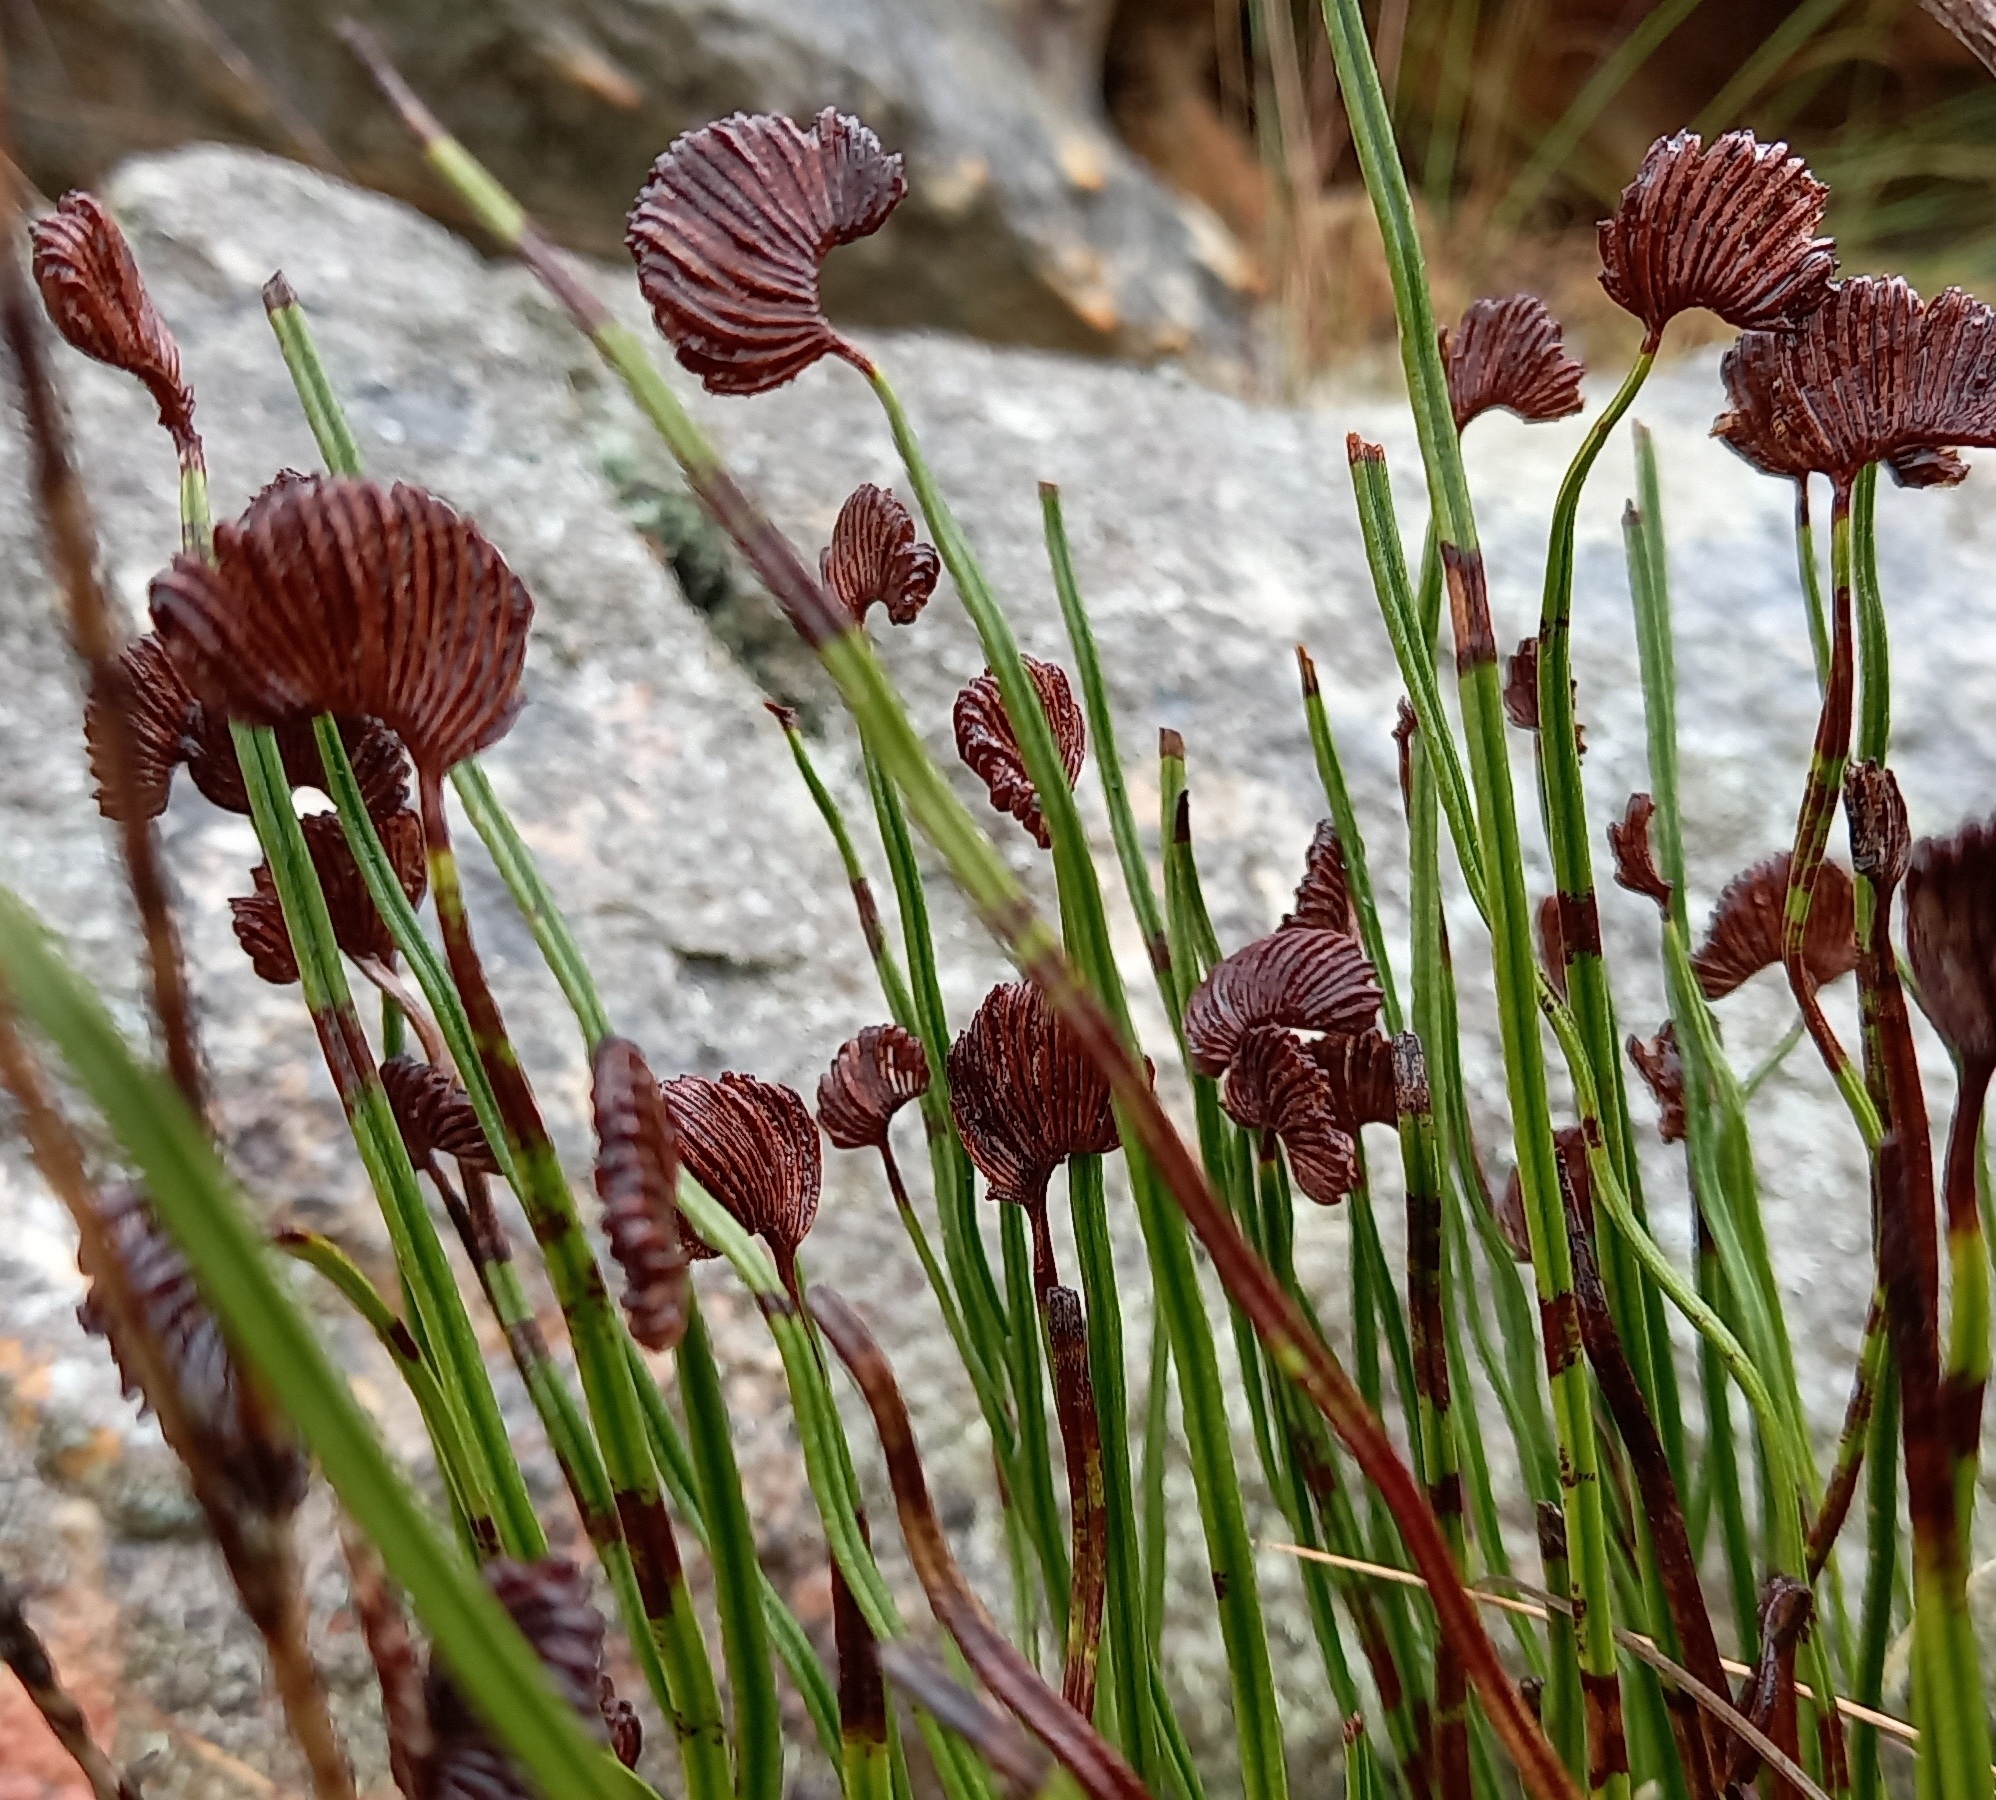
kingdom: Plantae
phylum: Tracheophyta
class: Polypodiopsida
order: Schizaeales
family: Schizaeaceae
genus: Schizaea
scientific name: Schizaea pectinata
